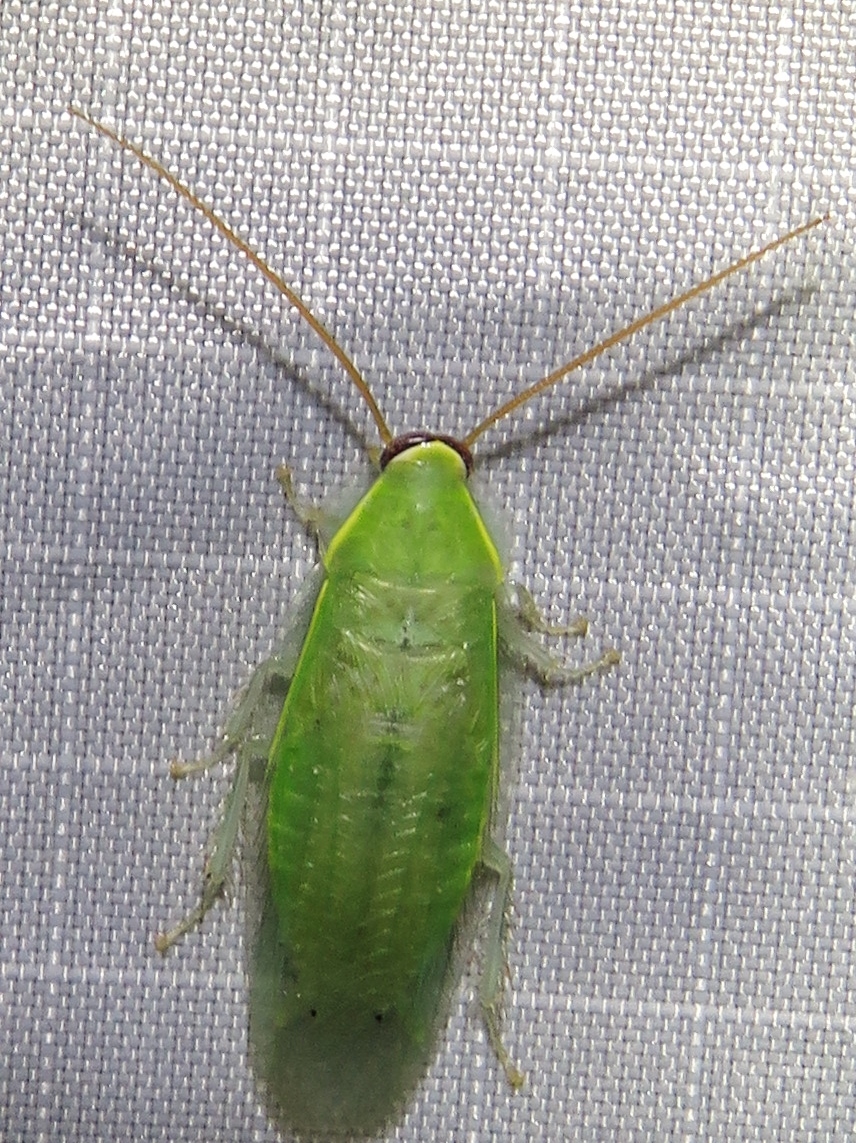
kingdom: Animalia
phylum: Arthropoda
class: Insecta
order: Blattodea
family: Blaberidae
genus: Panchlora
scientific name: Panchlora nivea
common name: Cuban cockroach
